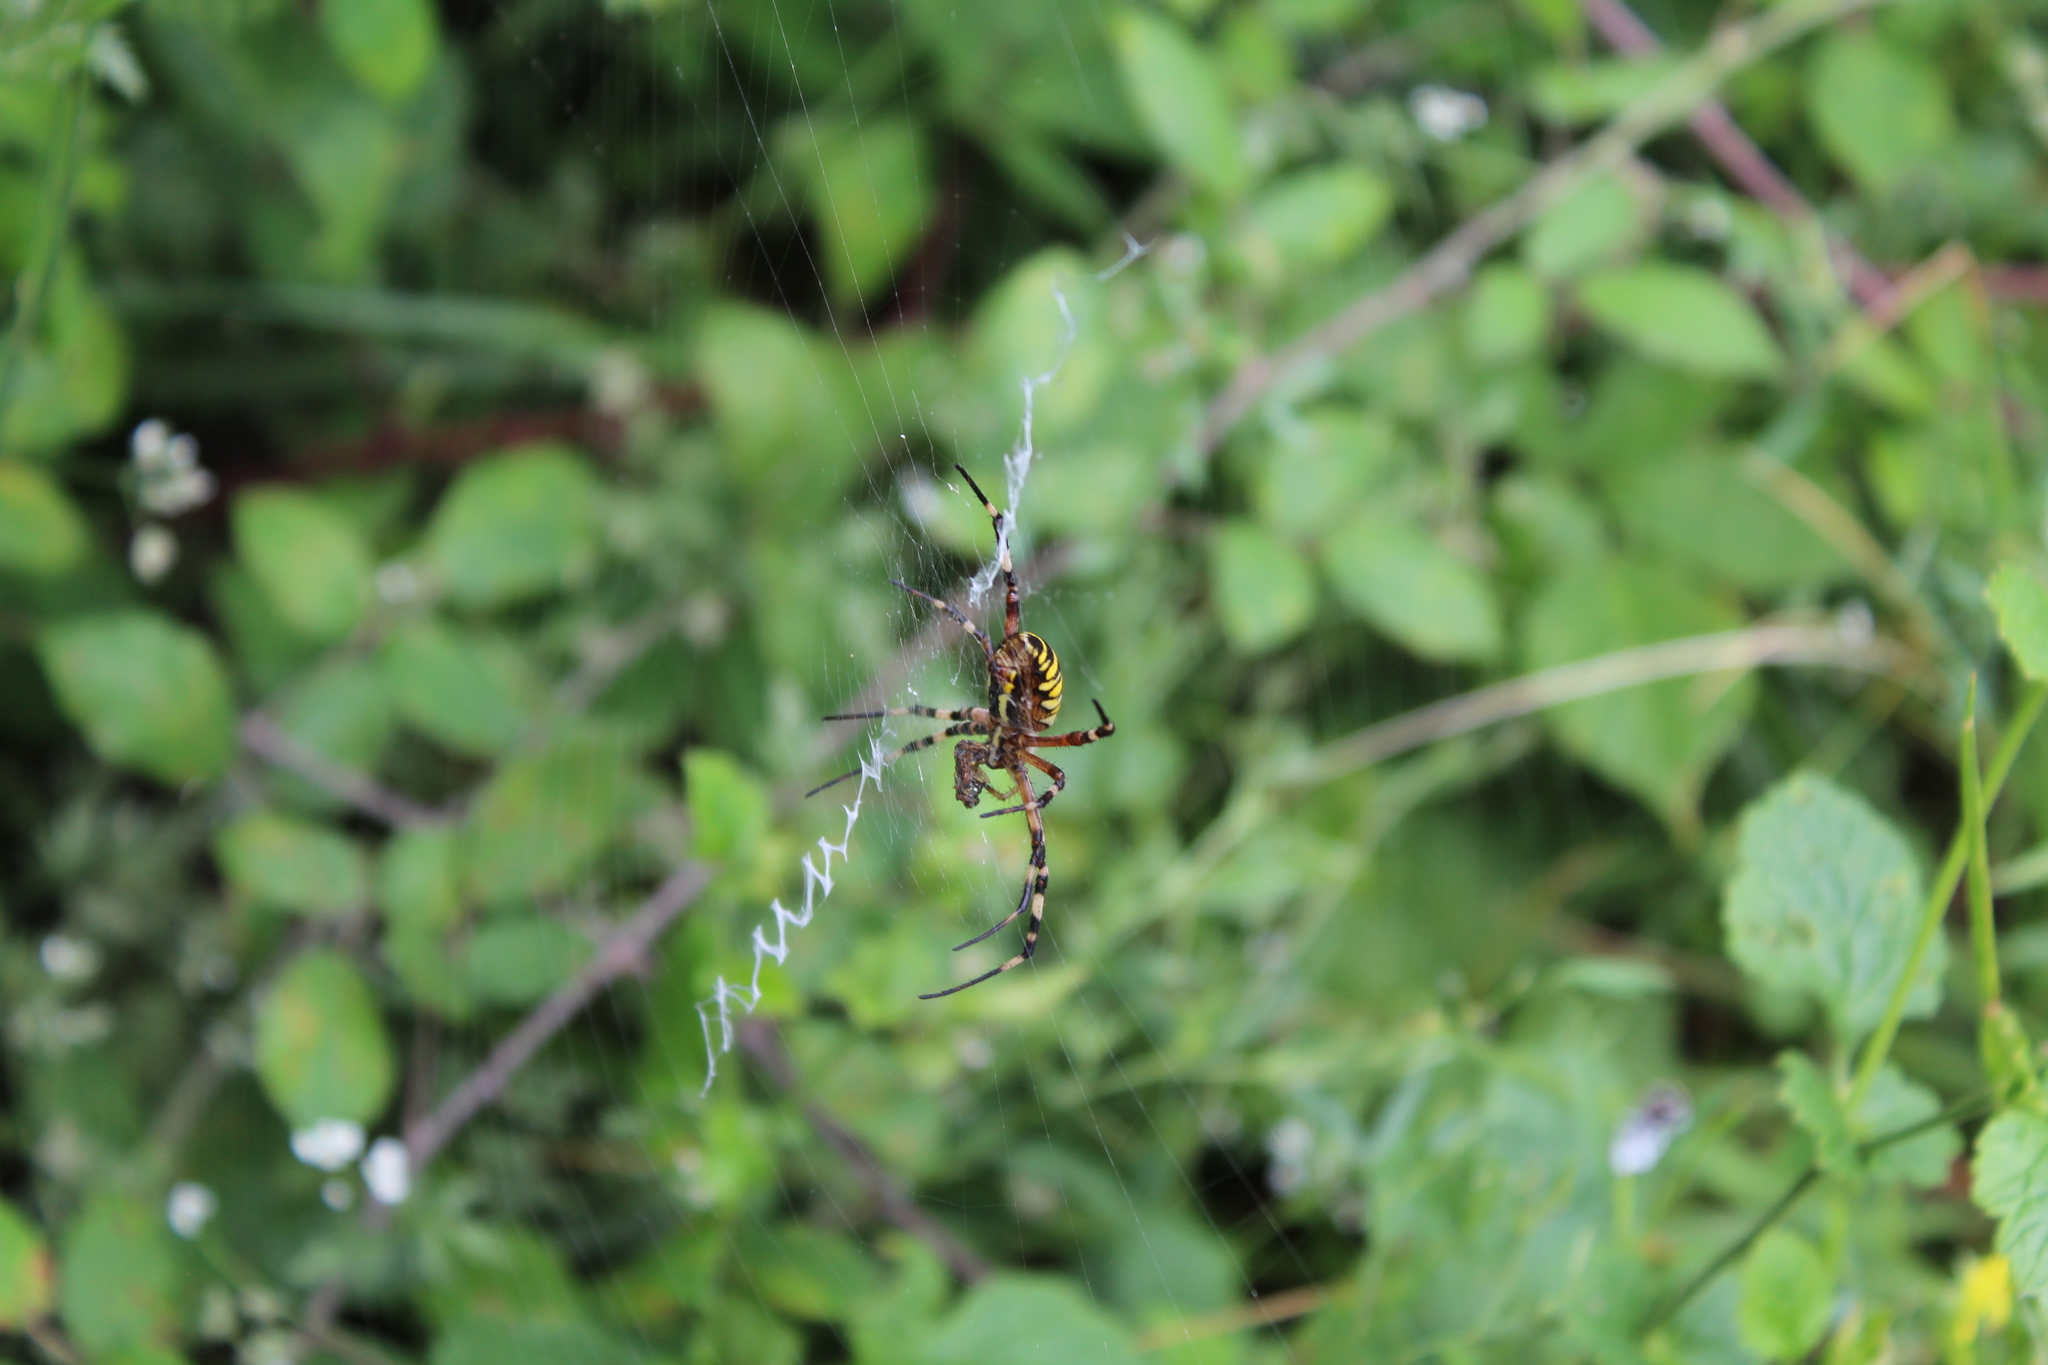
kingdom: Animalia
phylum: Arthropoda
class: Arachnida
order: Araneae
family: Araneidae
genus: Argiope
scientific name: Argiope bruennichi
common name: Wasp spider
